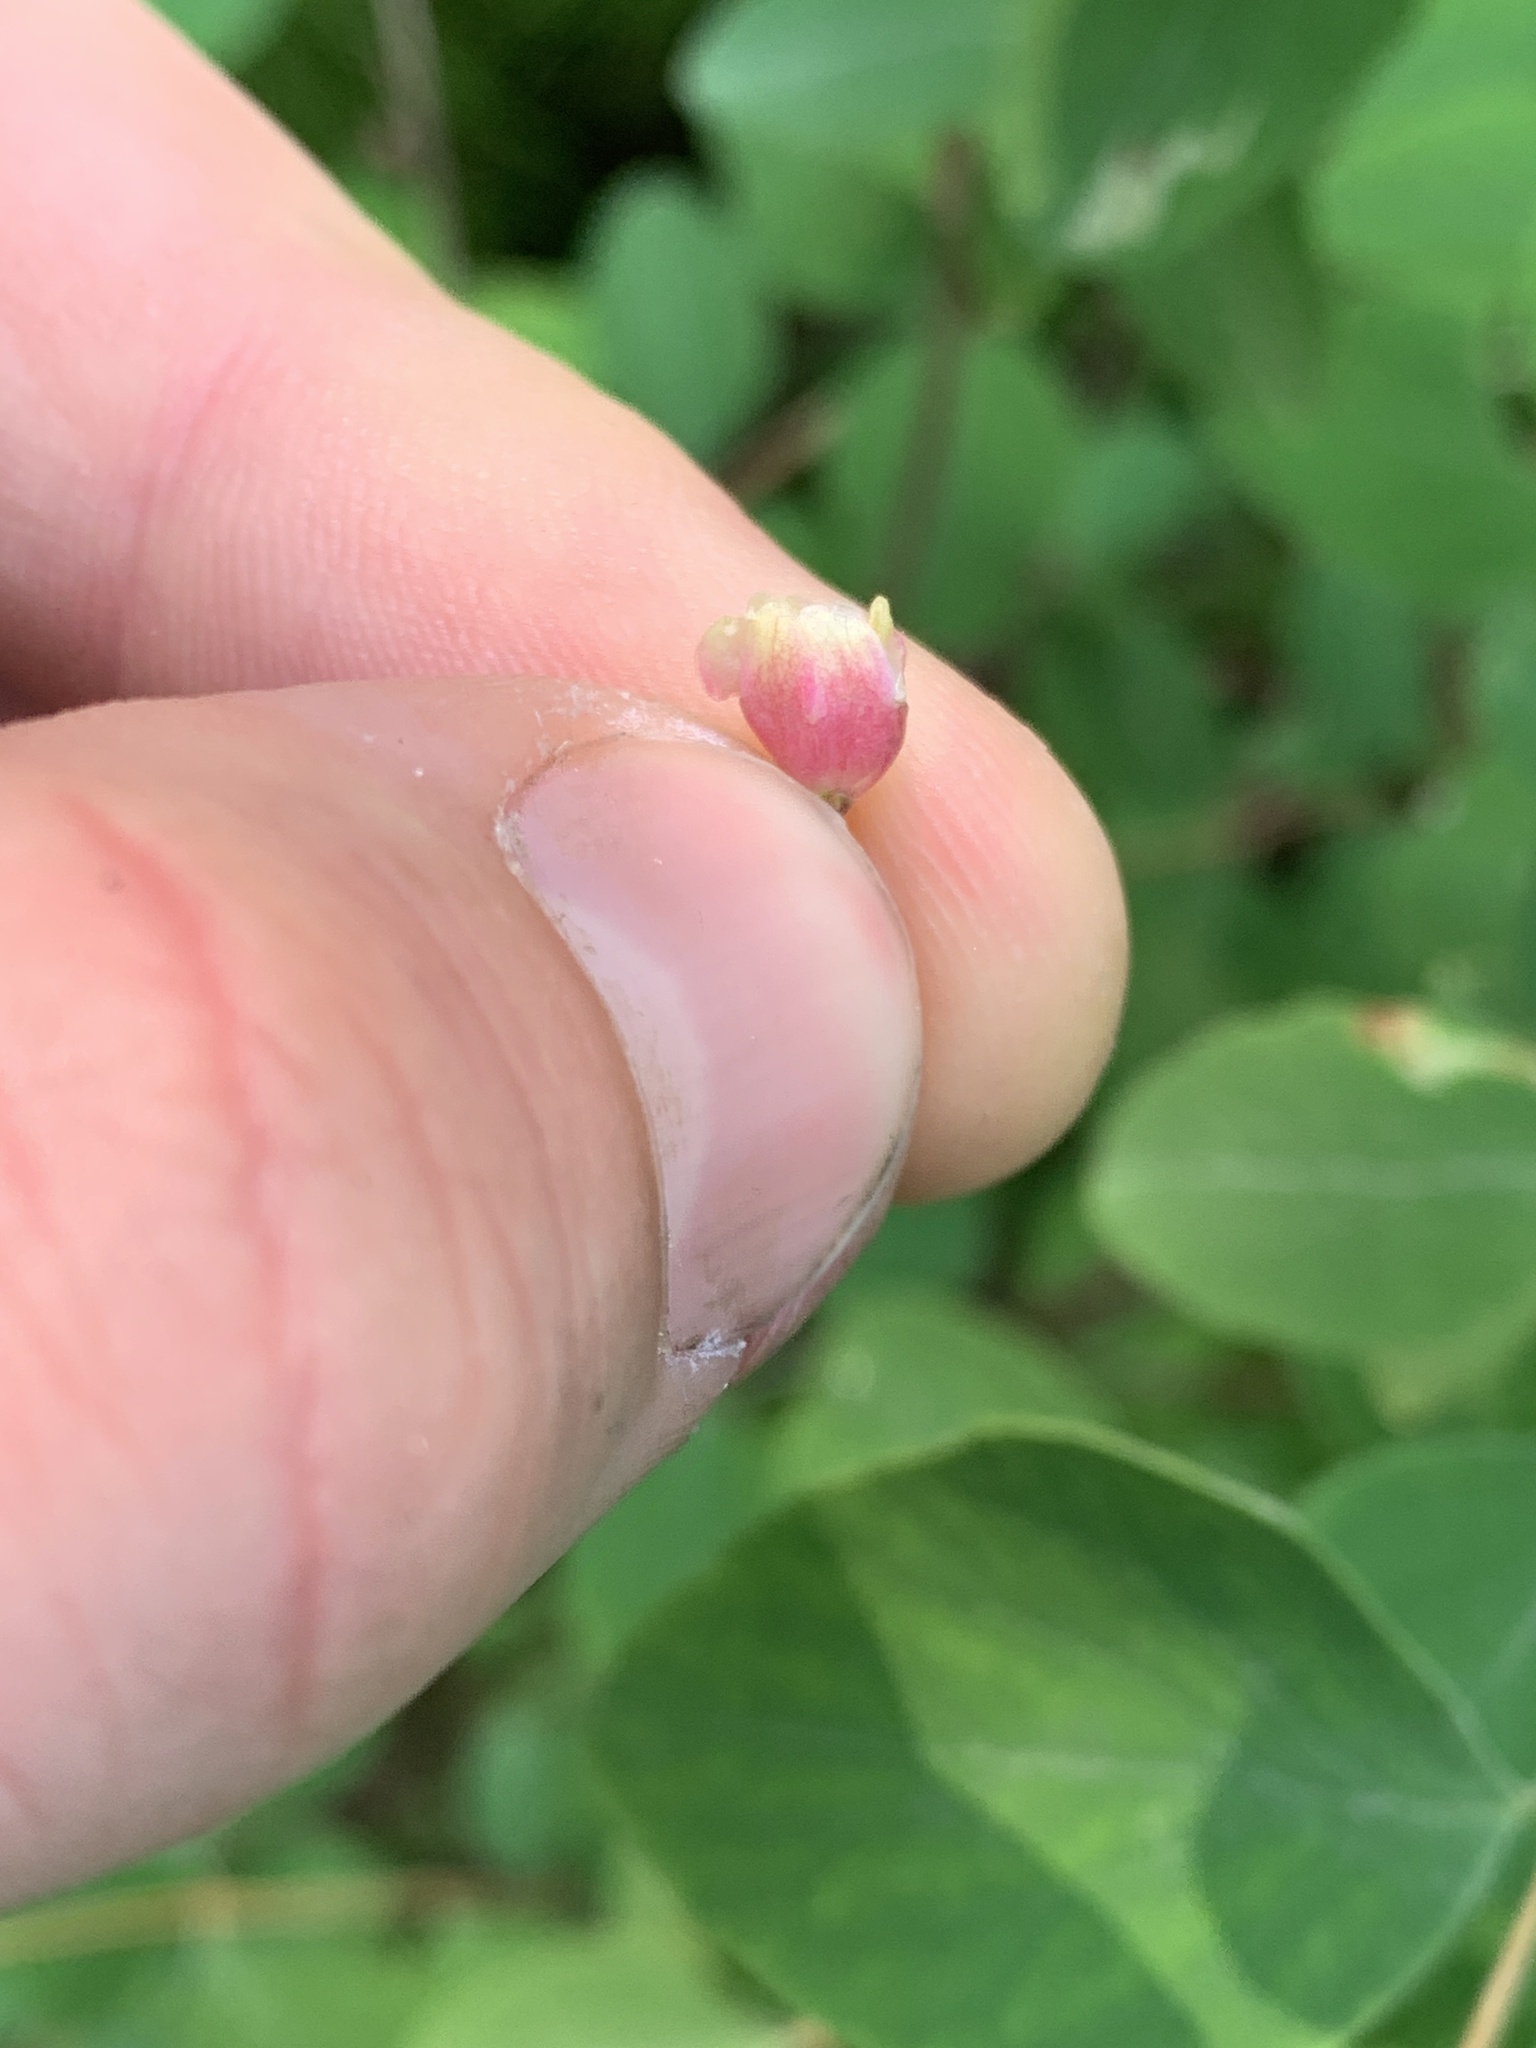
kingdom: Plantae
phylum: Tracheophyta
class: Magnoliopsida
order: Dipsacales
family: Caprifoliaceae
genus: Symphoricarpos
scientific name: Symphoricarpos albus
